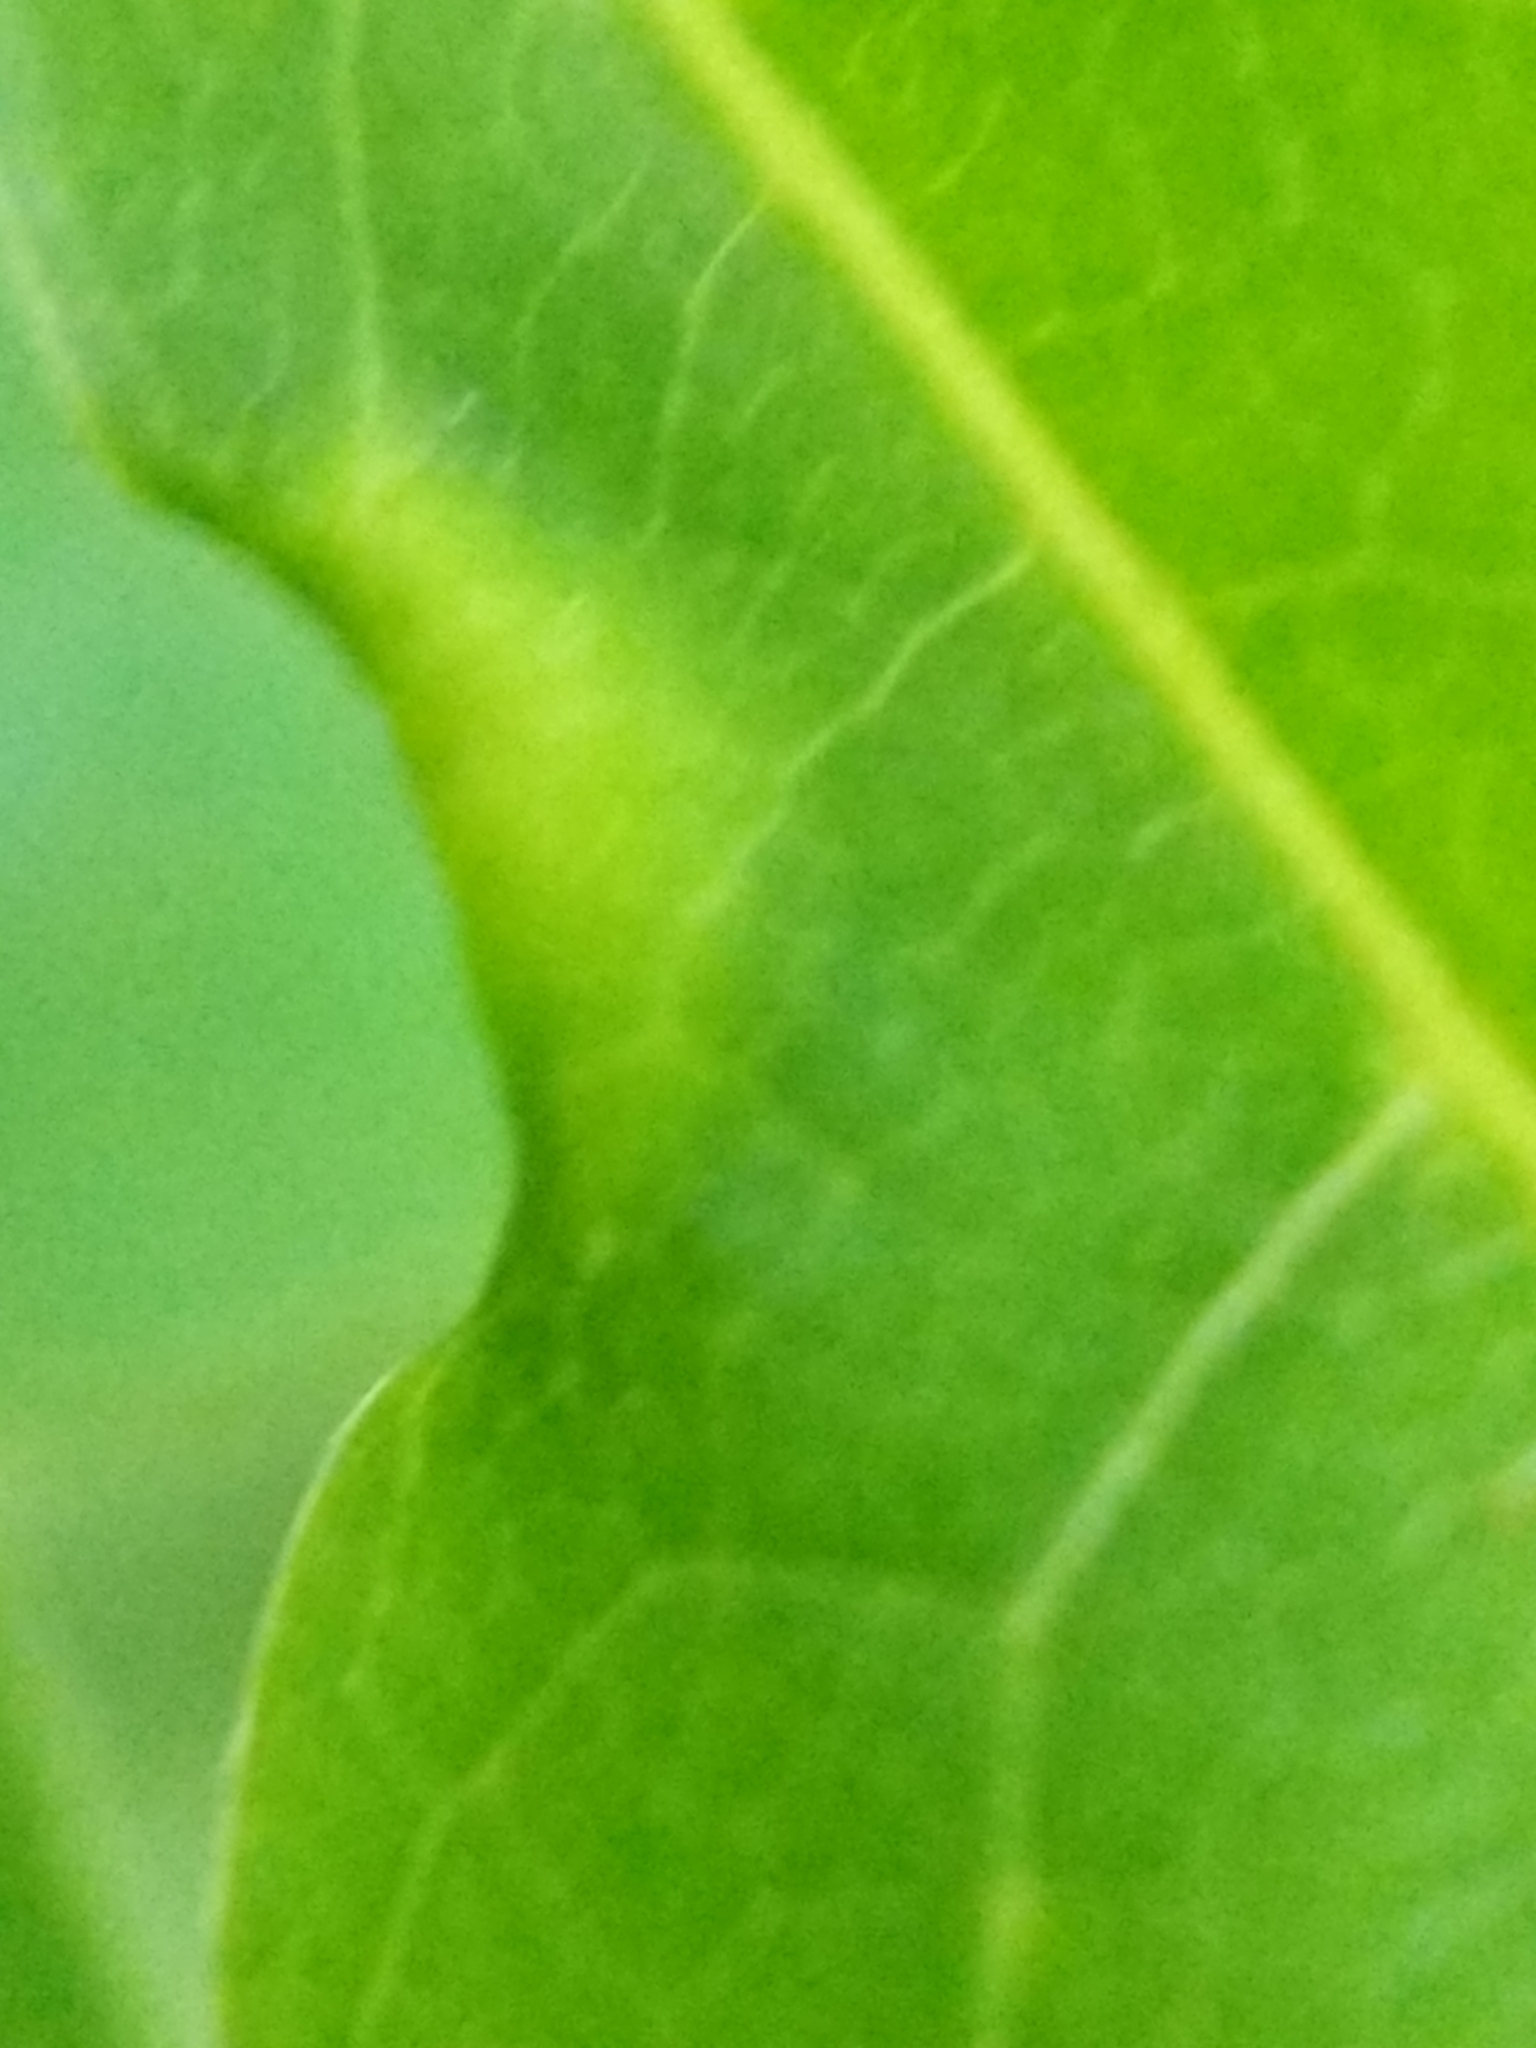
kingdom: Animalia
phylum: Arthropoda
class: Insecta
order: Hemiptera
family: Phylloxeridae
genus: Phylloxerina
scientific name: Phylloxerina nyssae
